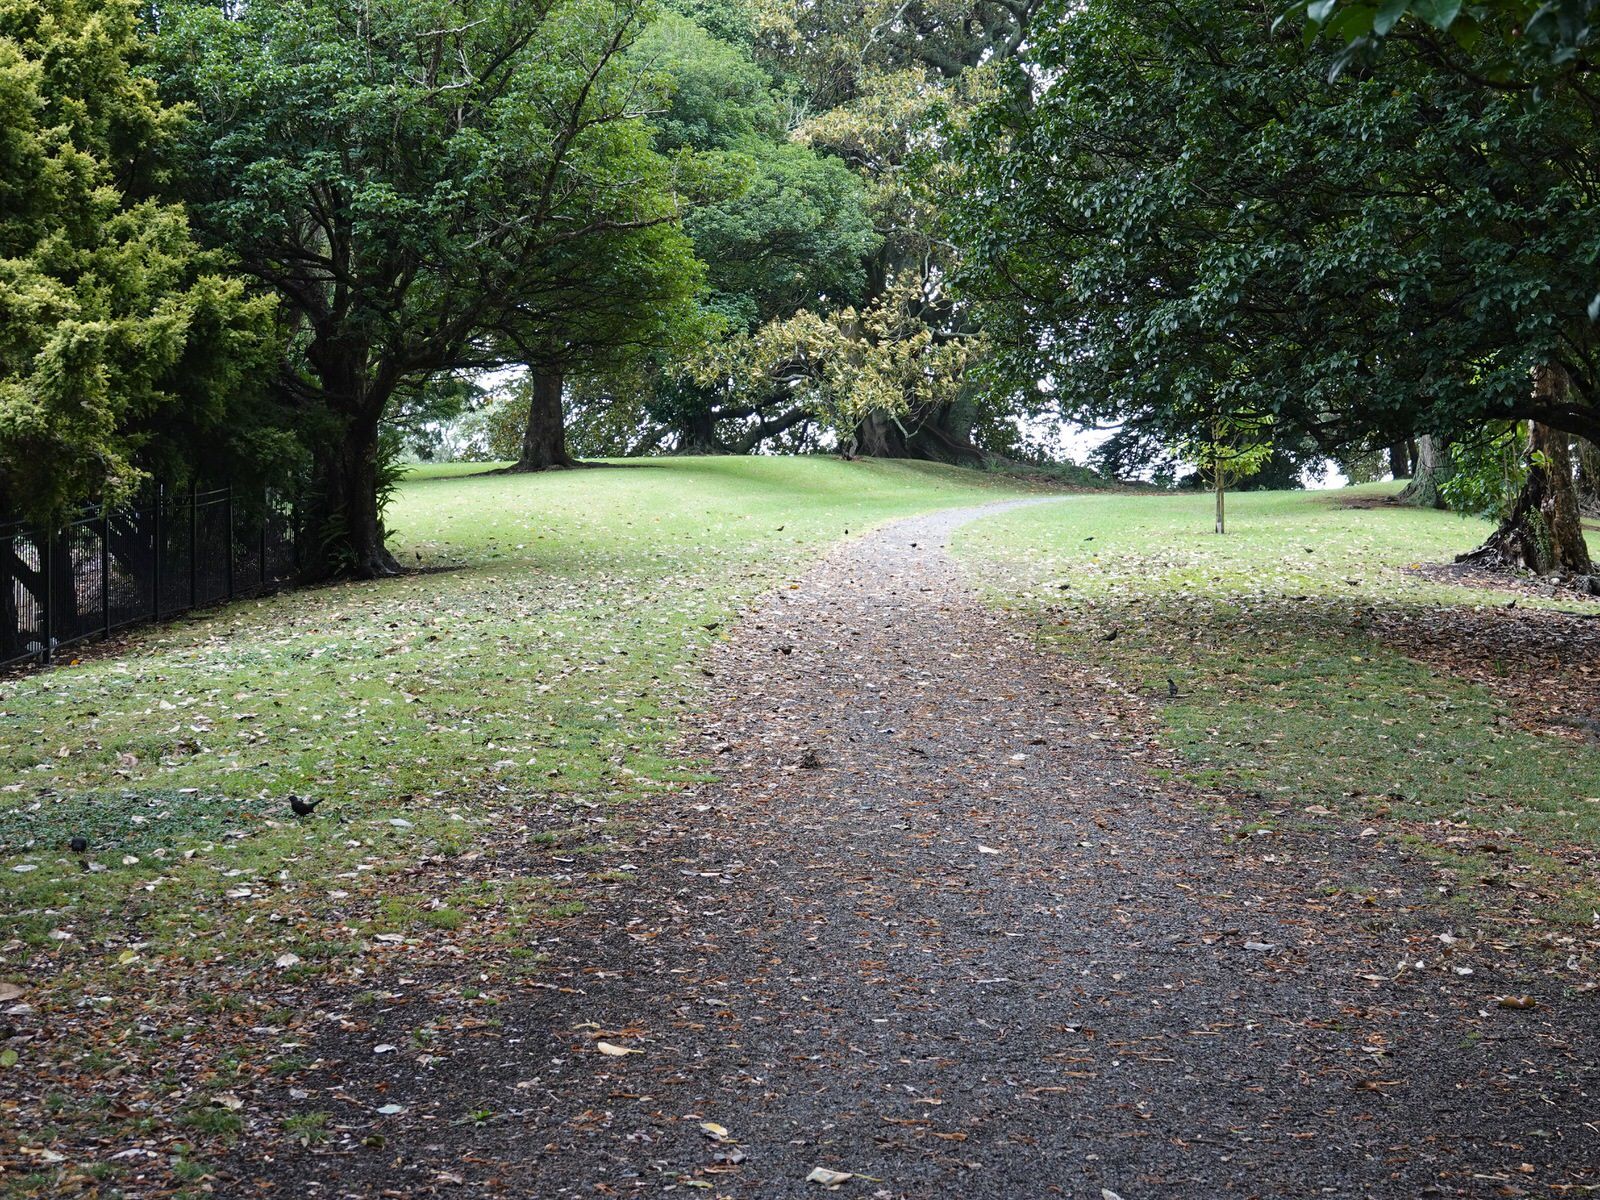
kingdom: Animalia
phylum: Chordata
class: Aves
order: Passeriformes
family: Turdidae
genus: Turdus
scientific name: Turdus merula
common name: Common blackbird
